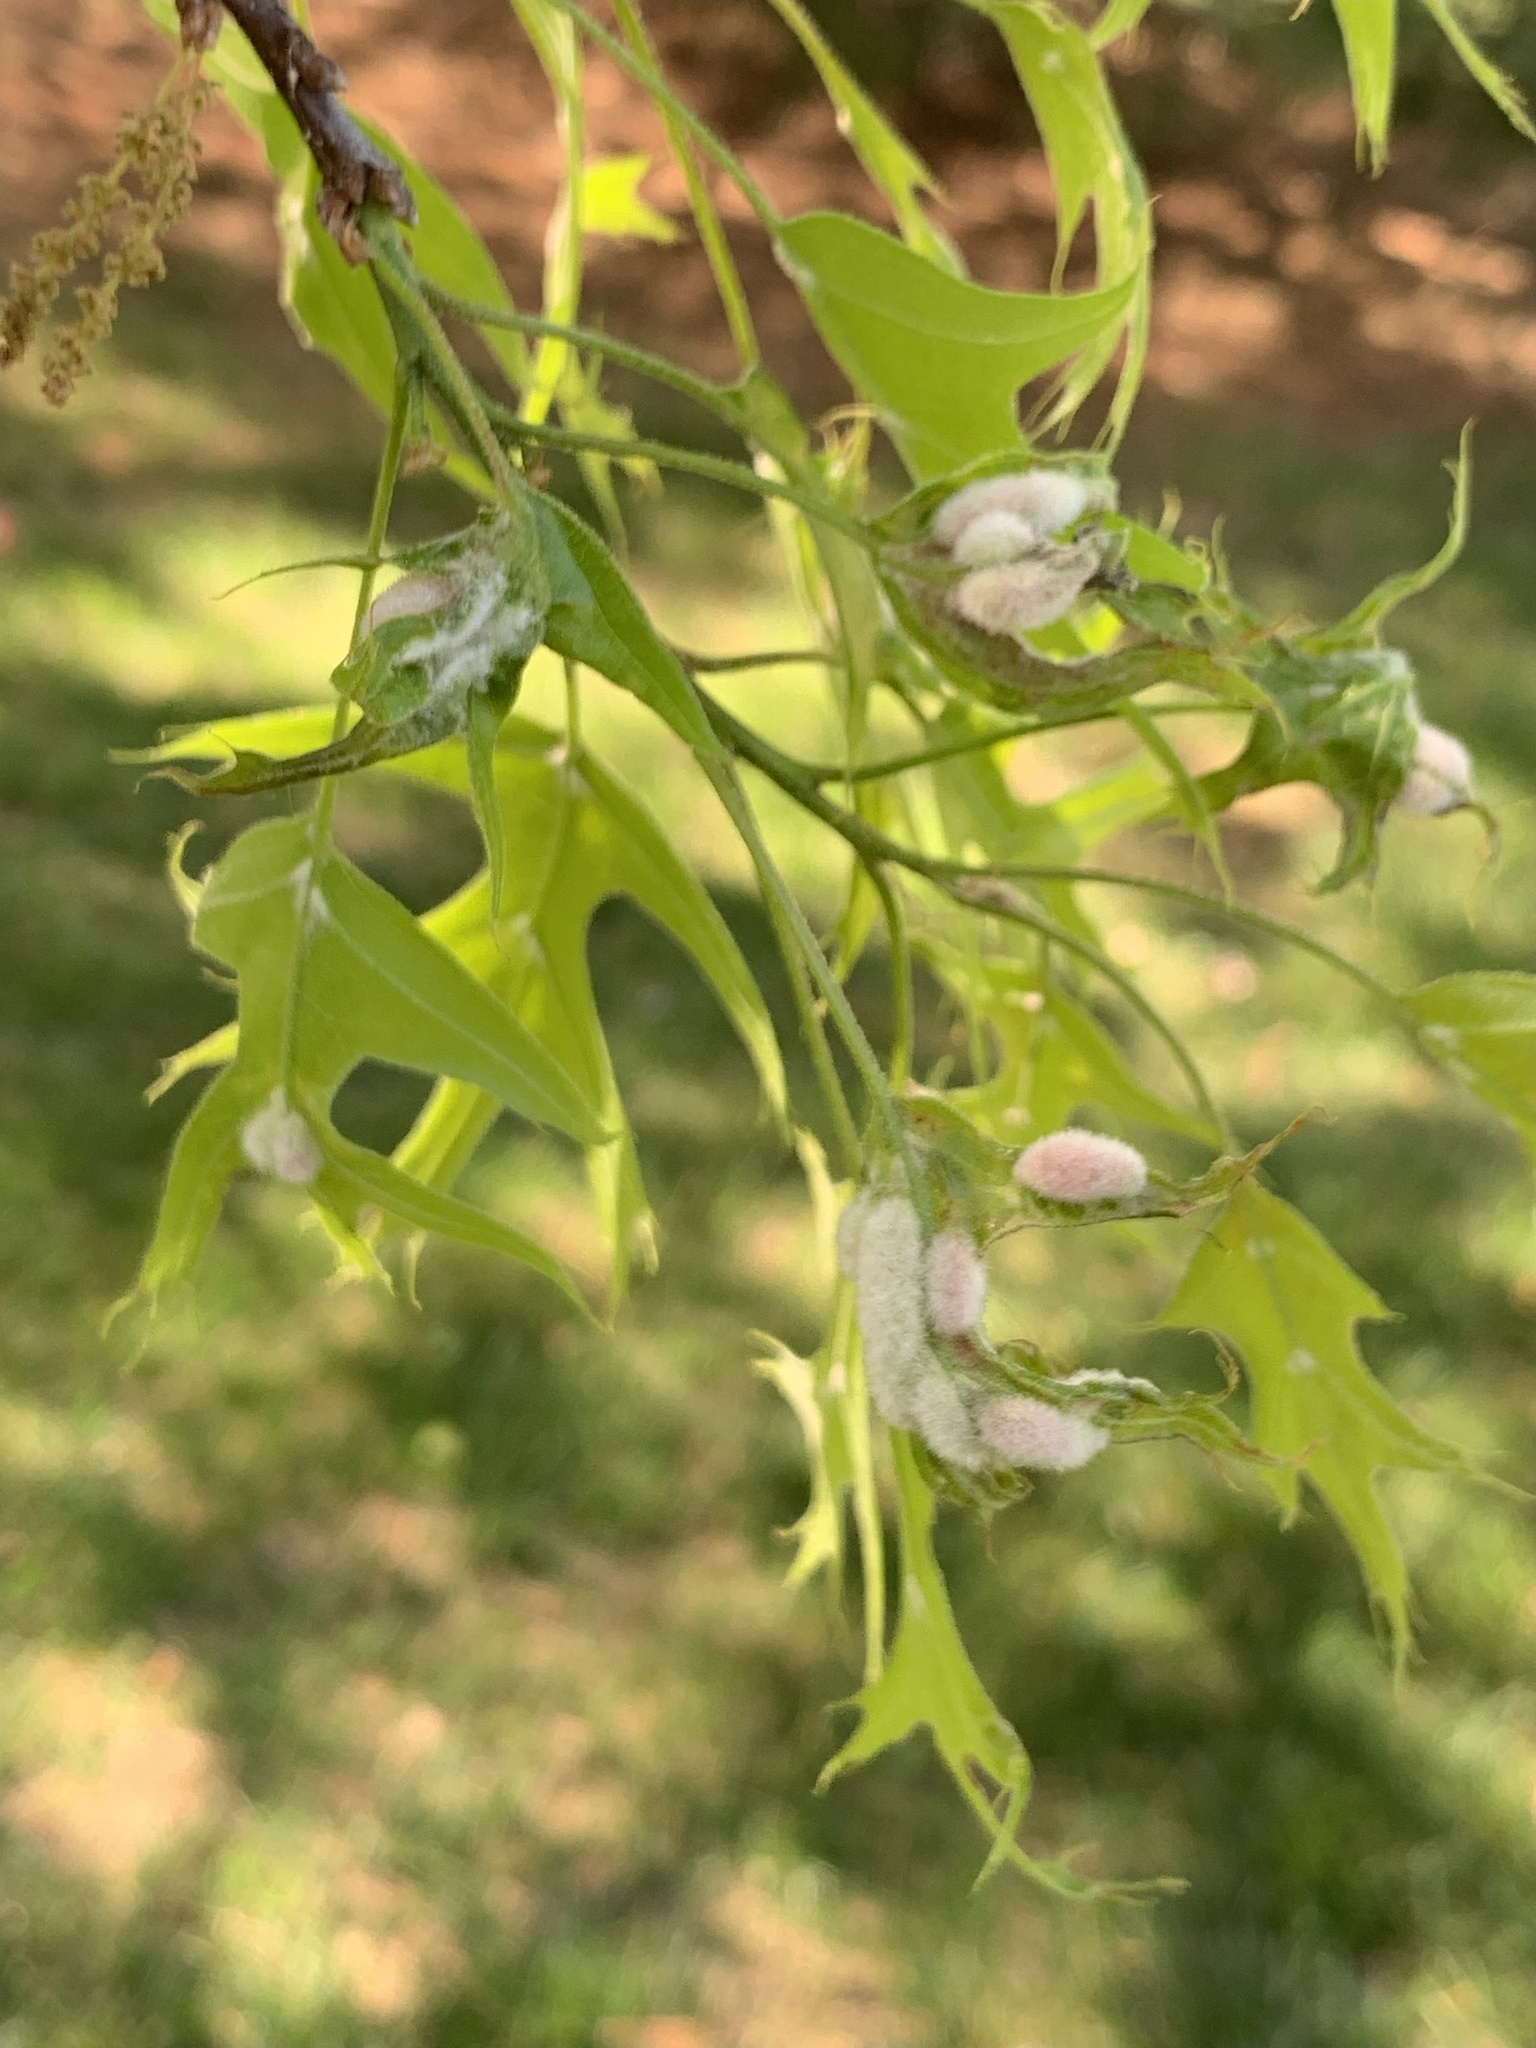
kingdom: Animalia
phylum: Arthropoda
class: Insecta
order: Diptera
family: Cecidomyiidae
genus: Macrodiplosis
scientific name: Macrodiplosis niveipila
